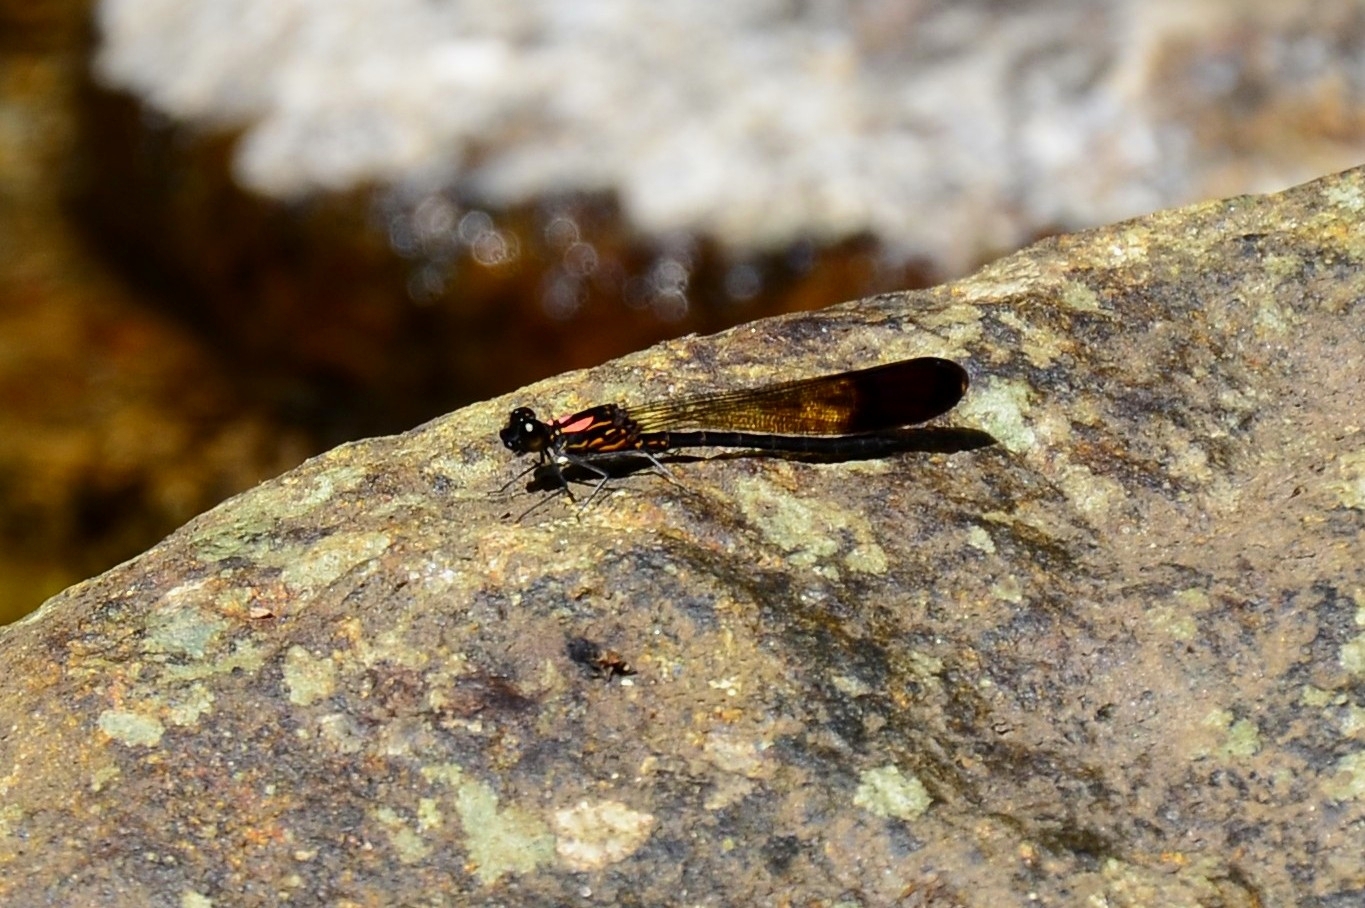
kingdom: Animalia
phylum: Arthropoda
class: Insecta
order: Odonata
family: Chlorocyphidae
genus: Heliocypha
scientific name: Heliocypha bisignata
